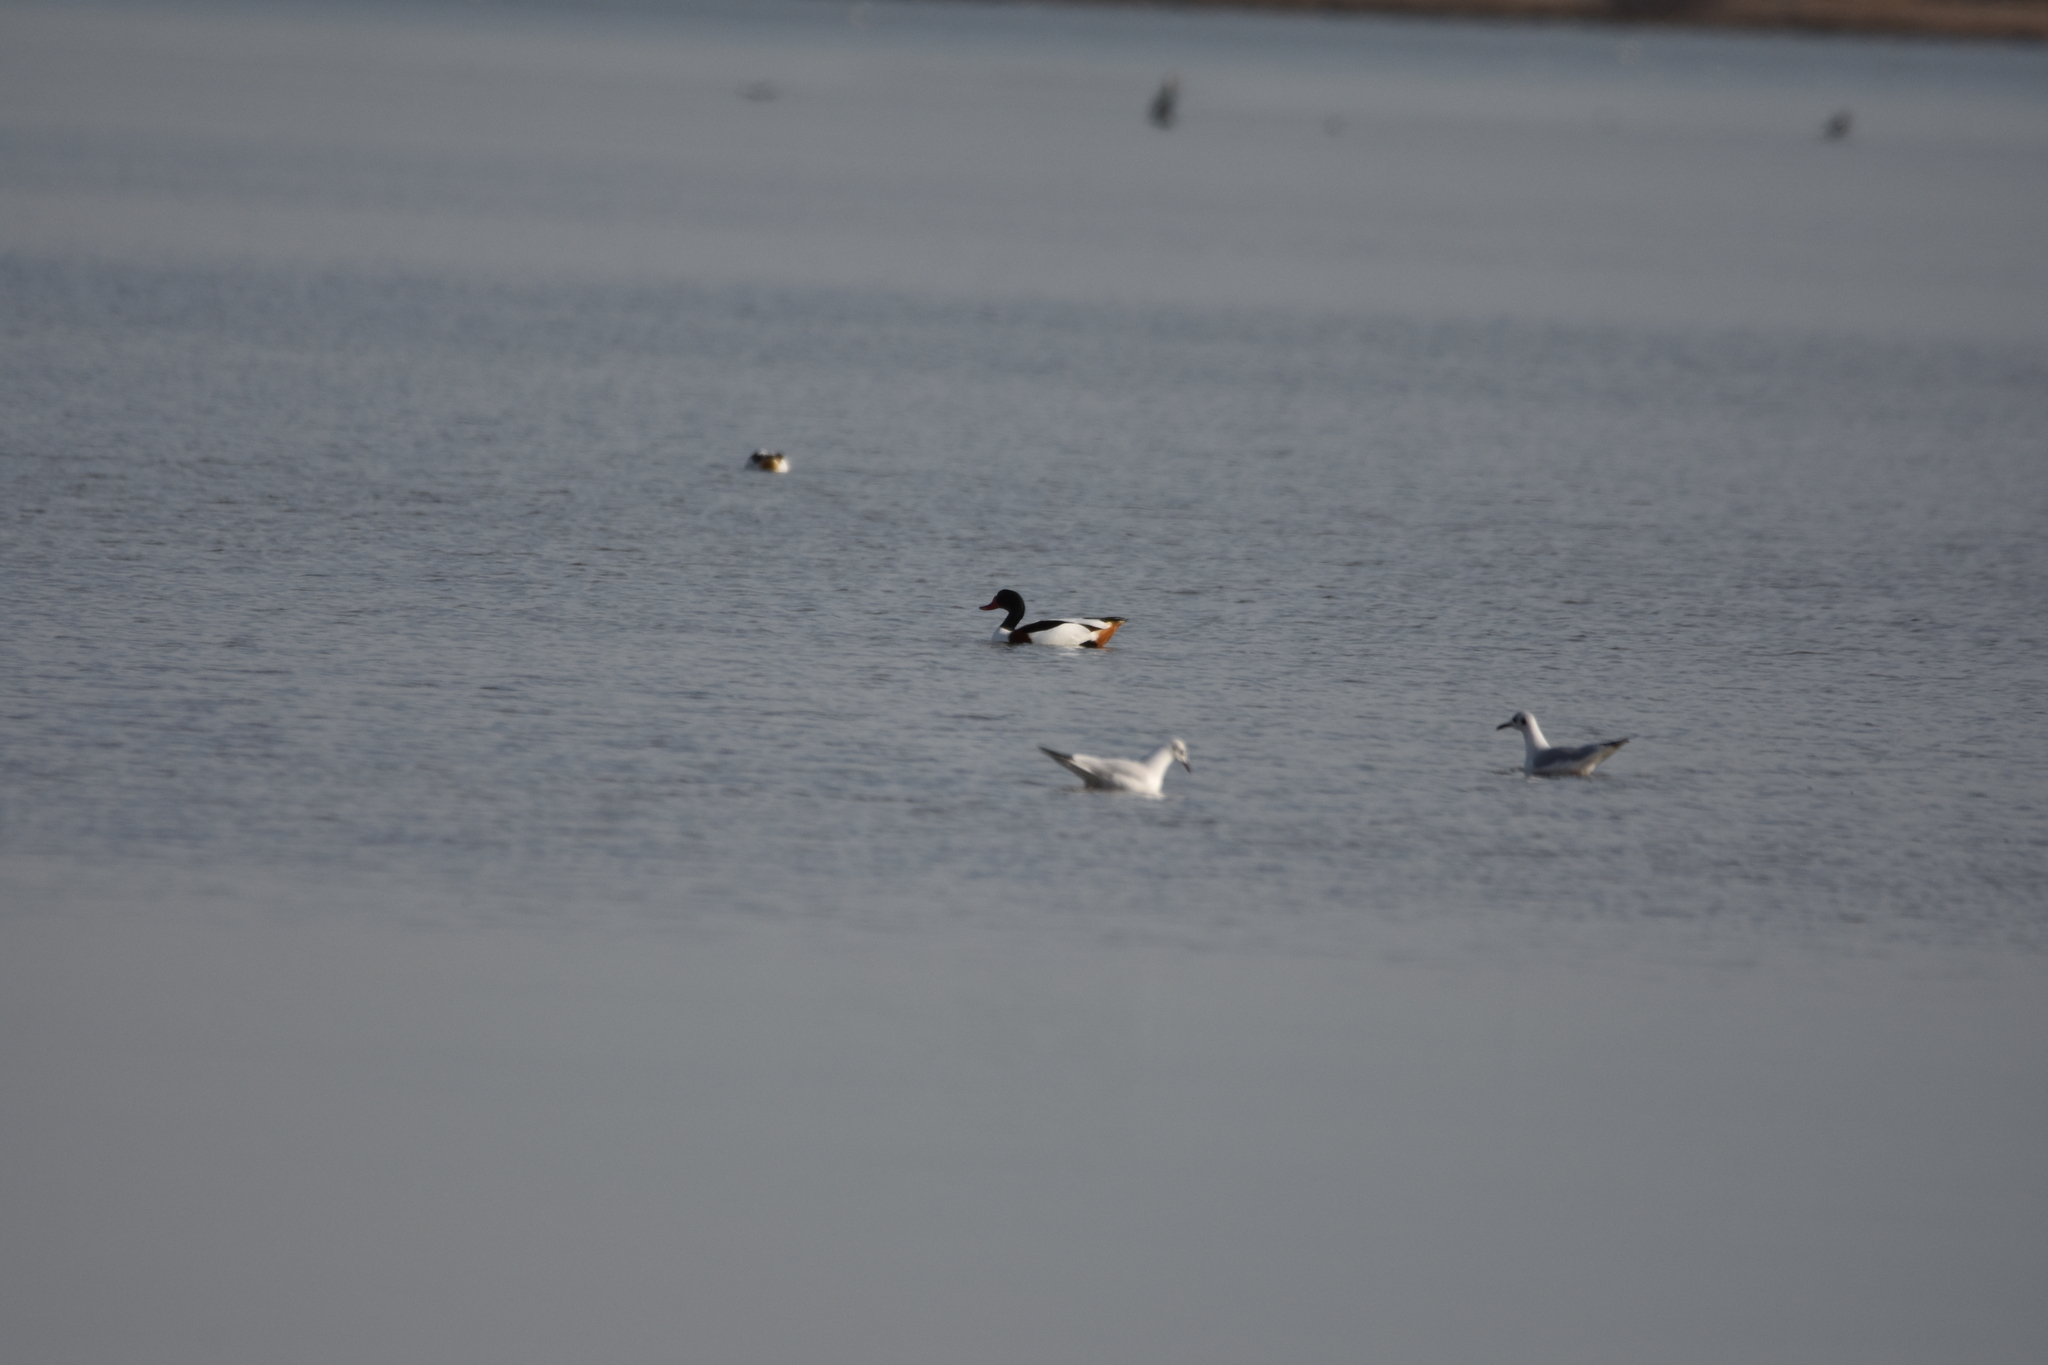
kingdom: Animalia
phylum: Chordata
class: Aves
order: Anseriformes
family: Anatidae
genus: Tadorna
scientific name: Tadorna tadorna
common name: Common shelduck
